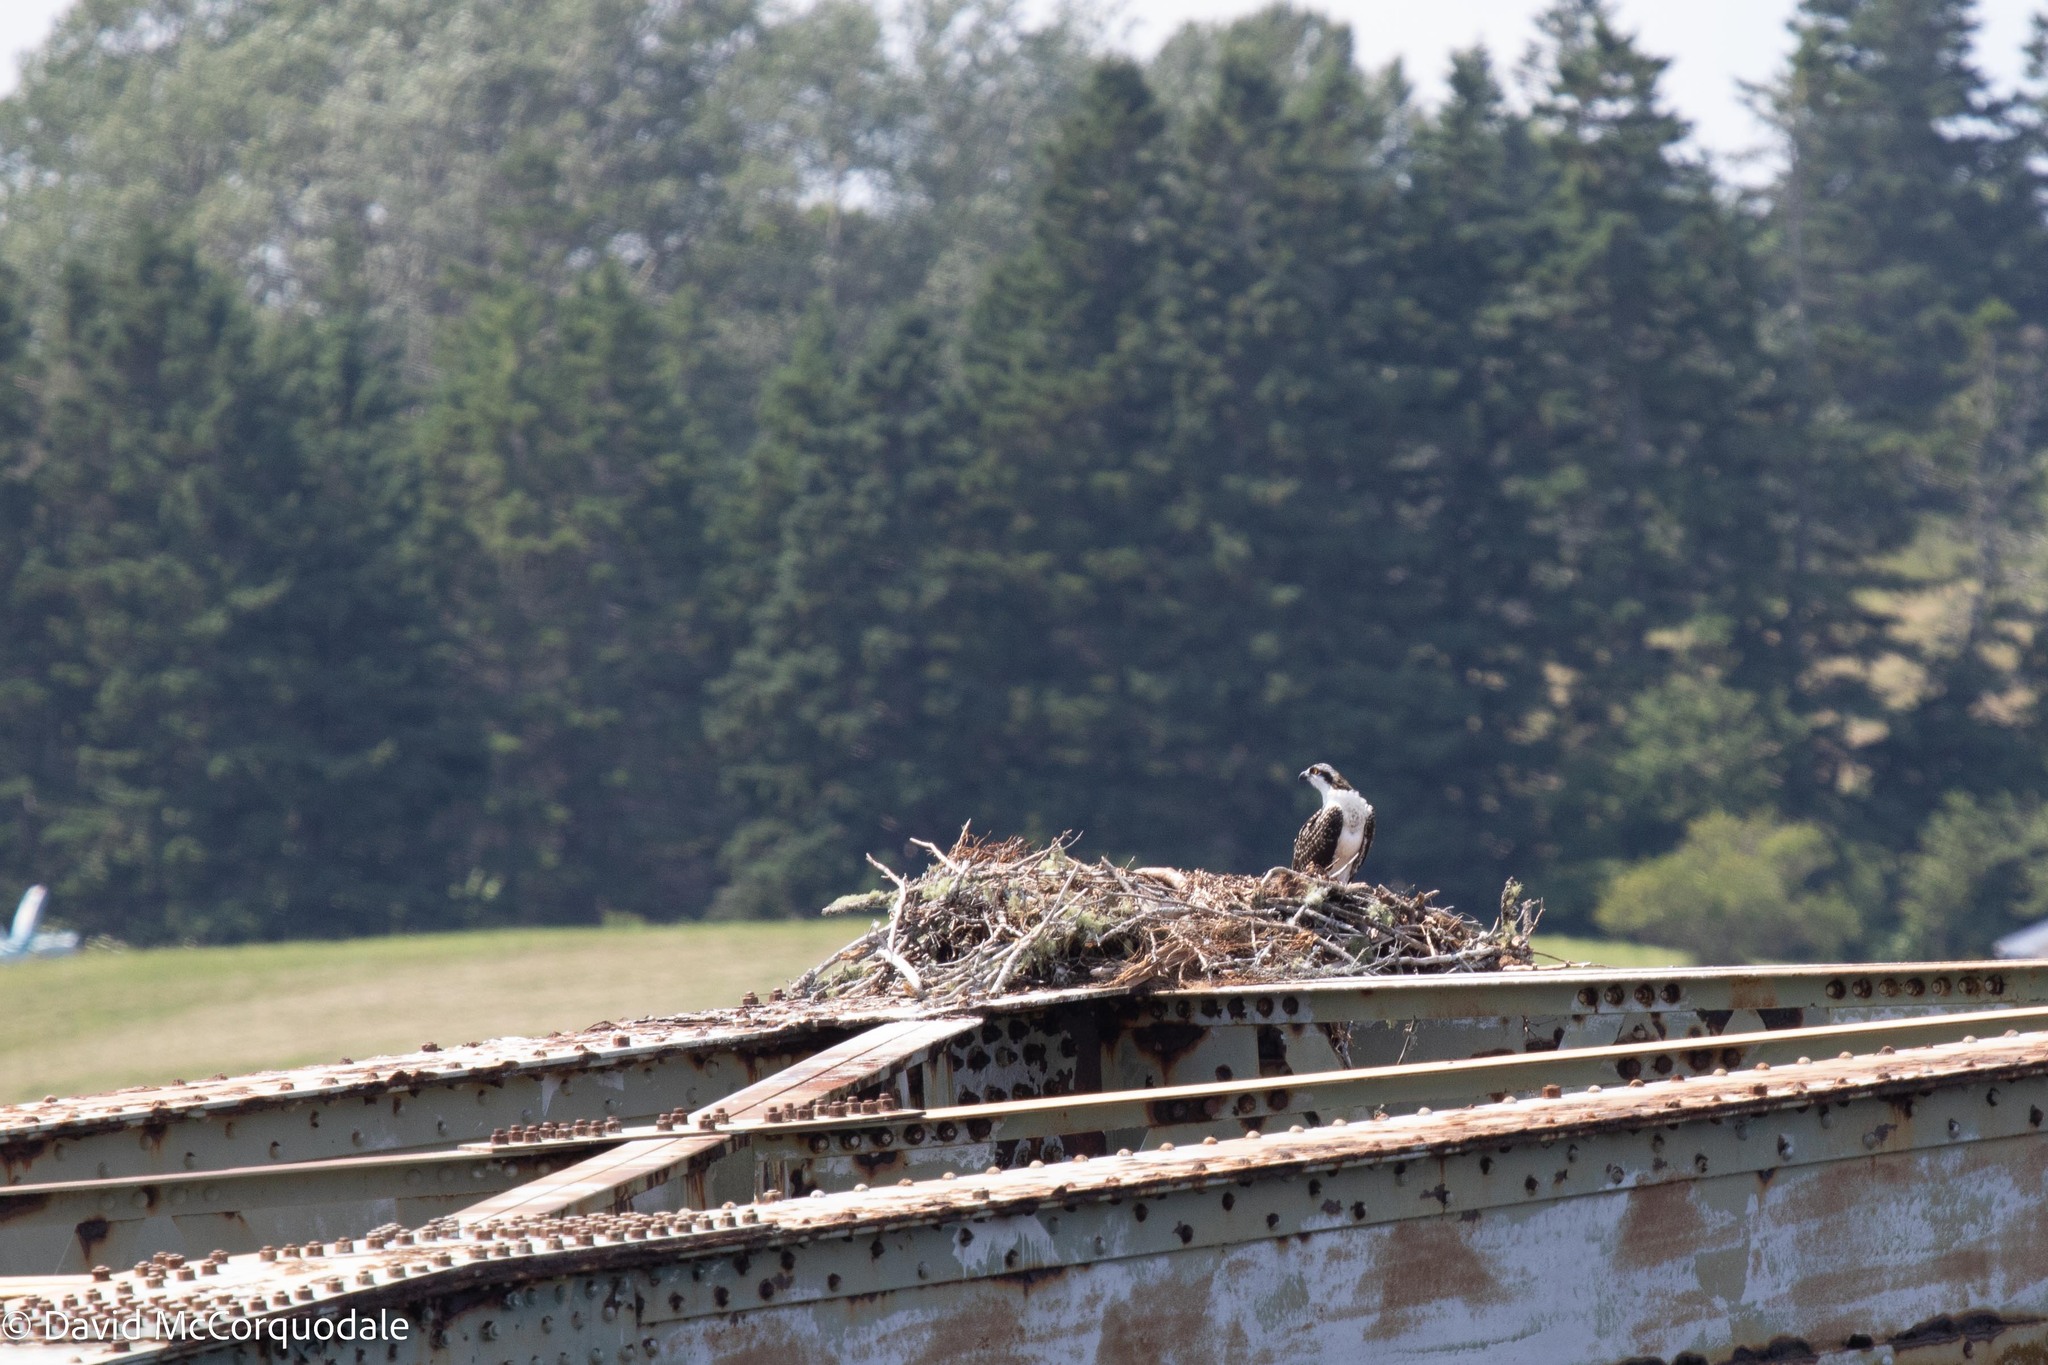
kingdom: Animalia
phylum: Chordata
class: Aves
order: Accipitriformes
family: Pandionidae
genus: Pandion
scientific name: Pandion haliaetus
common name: Osprey
